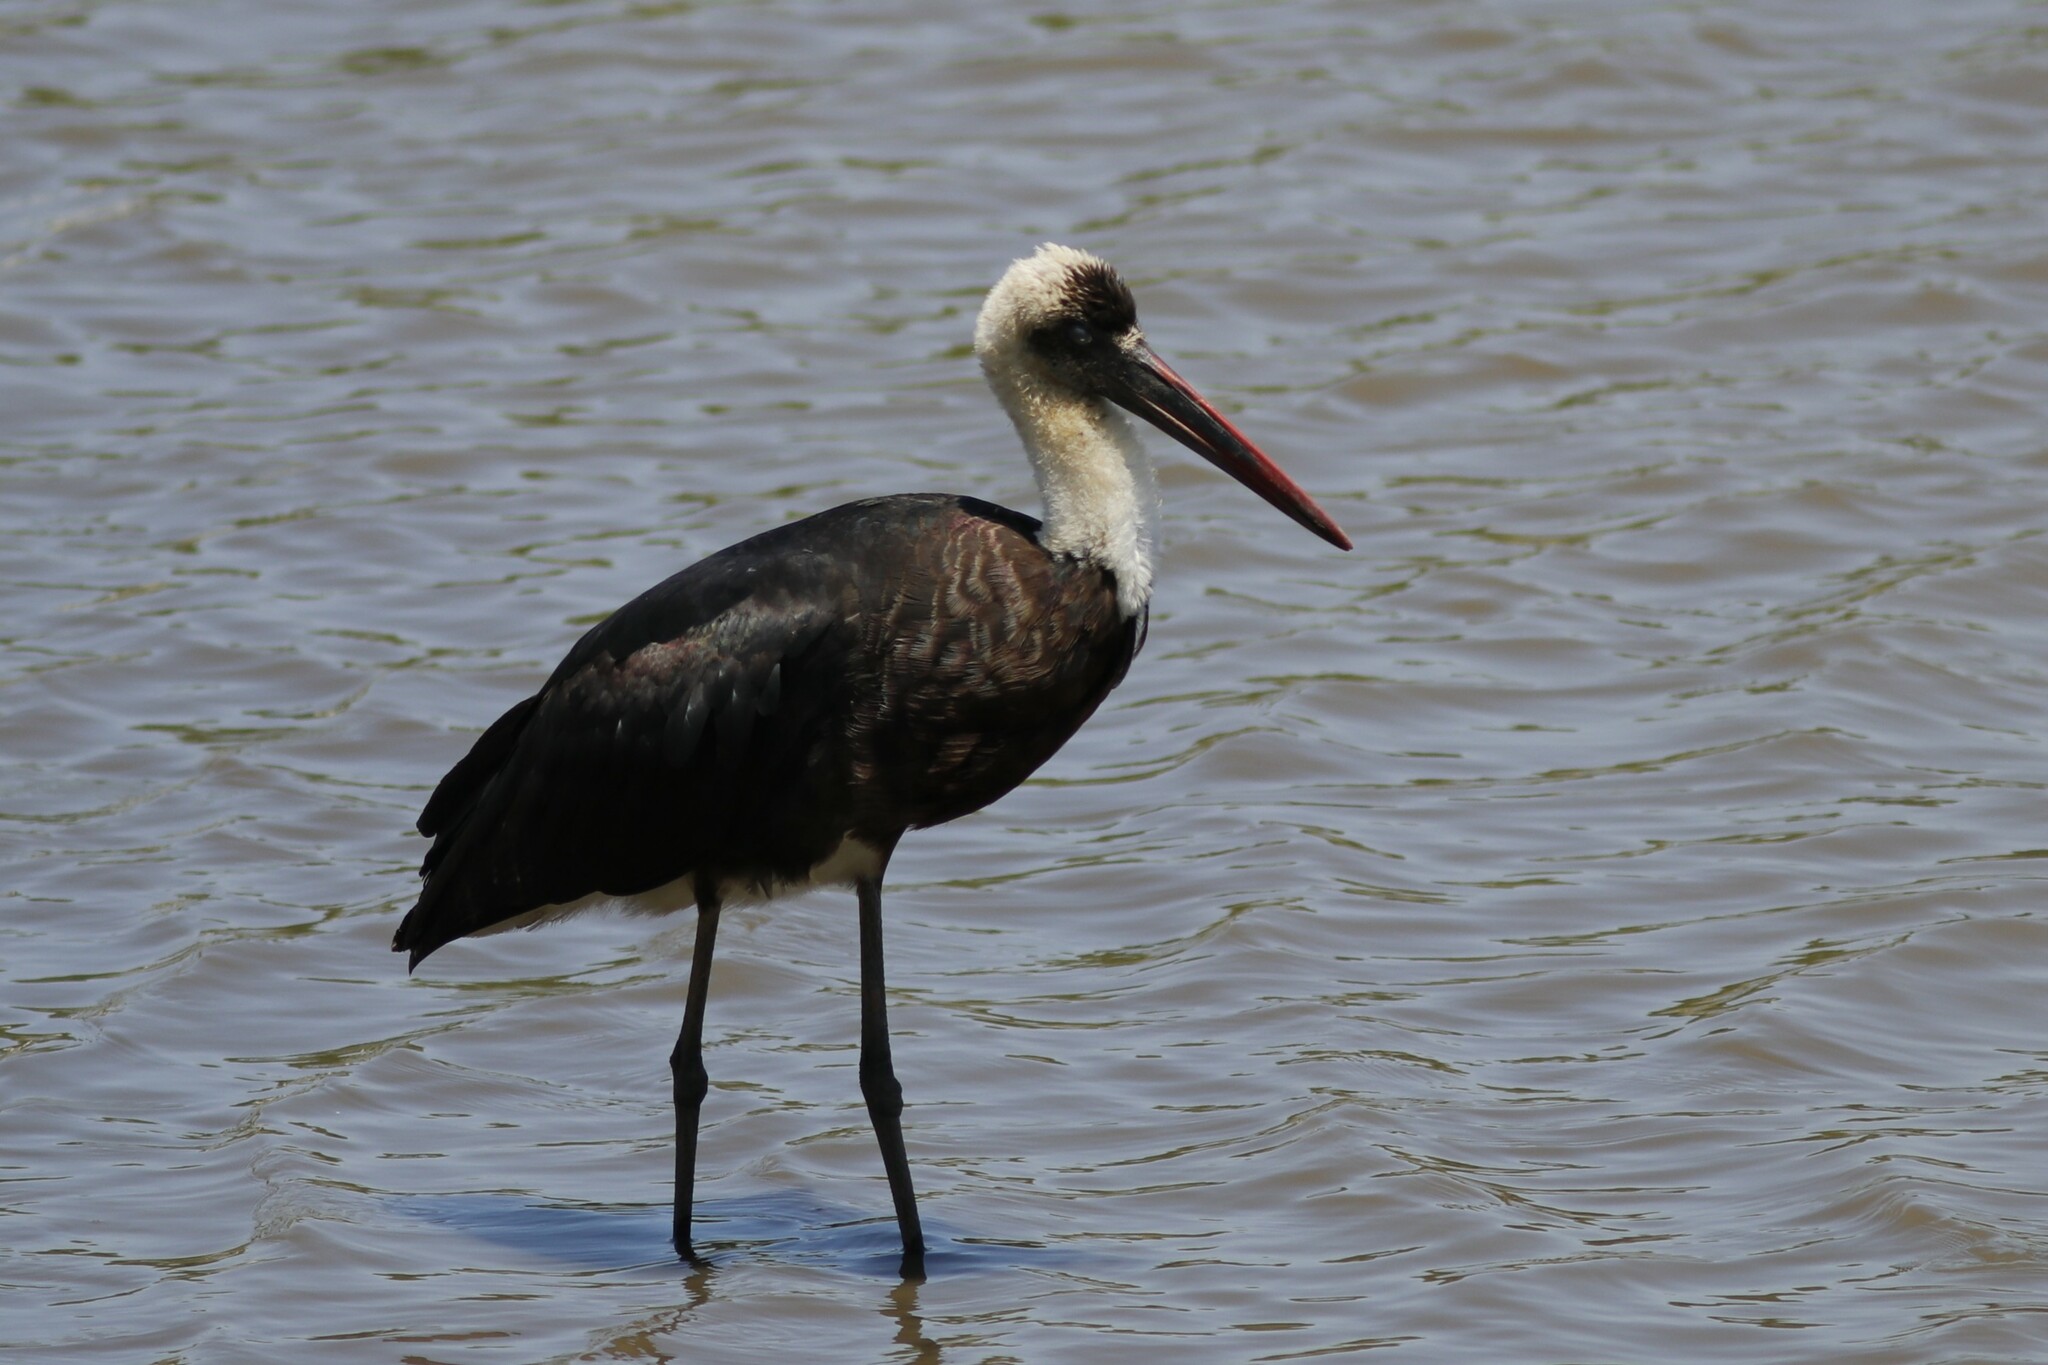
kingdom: Animalia
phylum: Chordata
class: Aves
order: Ciconiiformes
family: Ciconiidae
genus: Ciconia
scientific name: Ciconia microscelis
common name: African woollyneck
